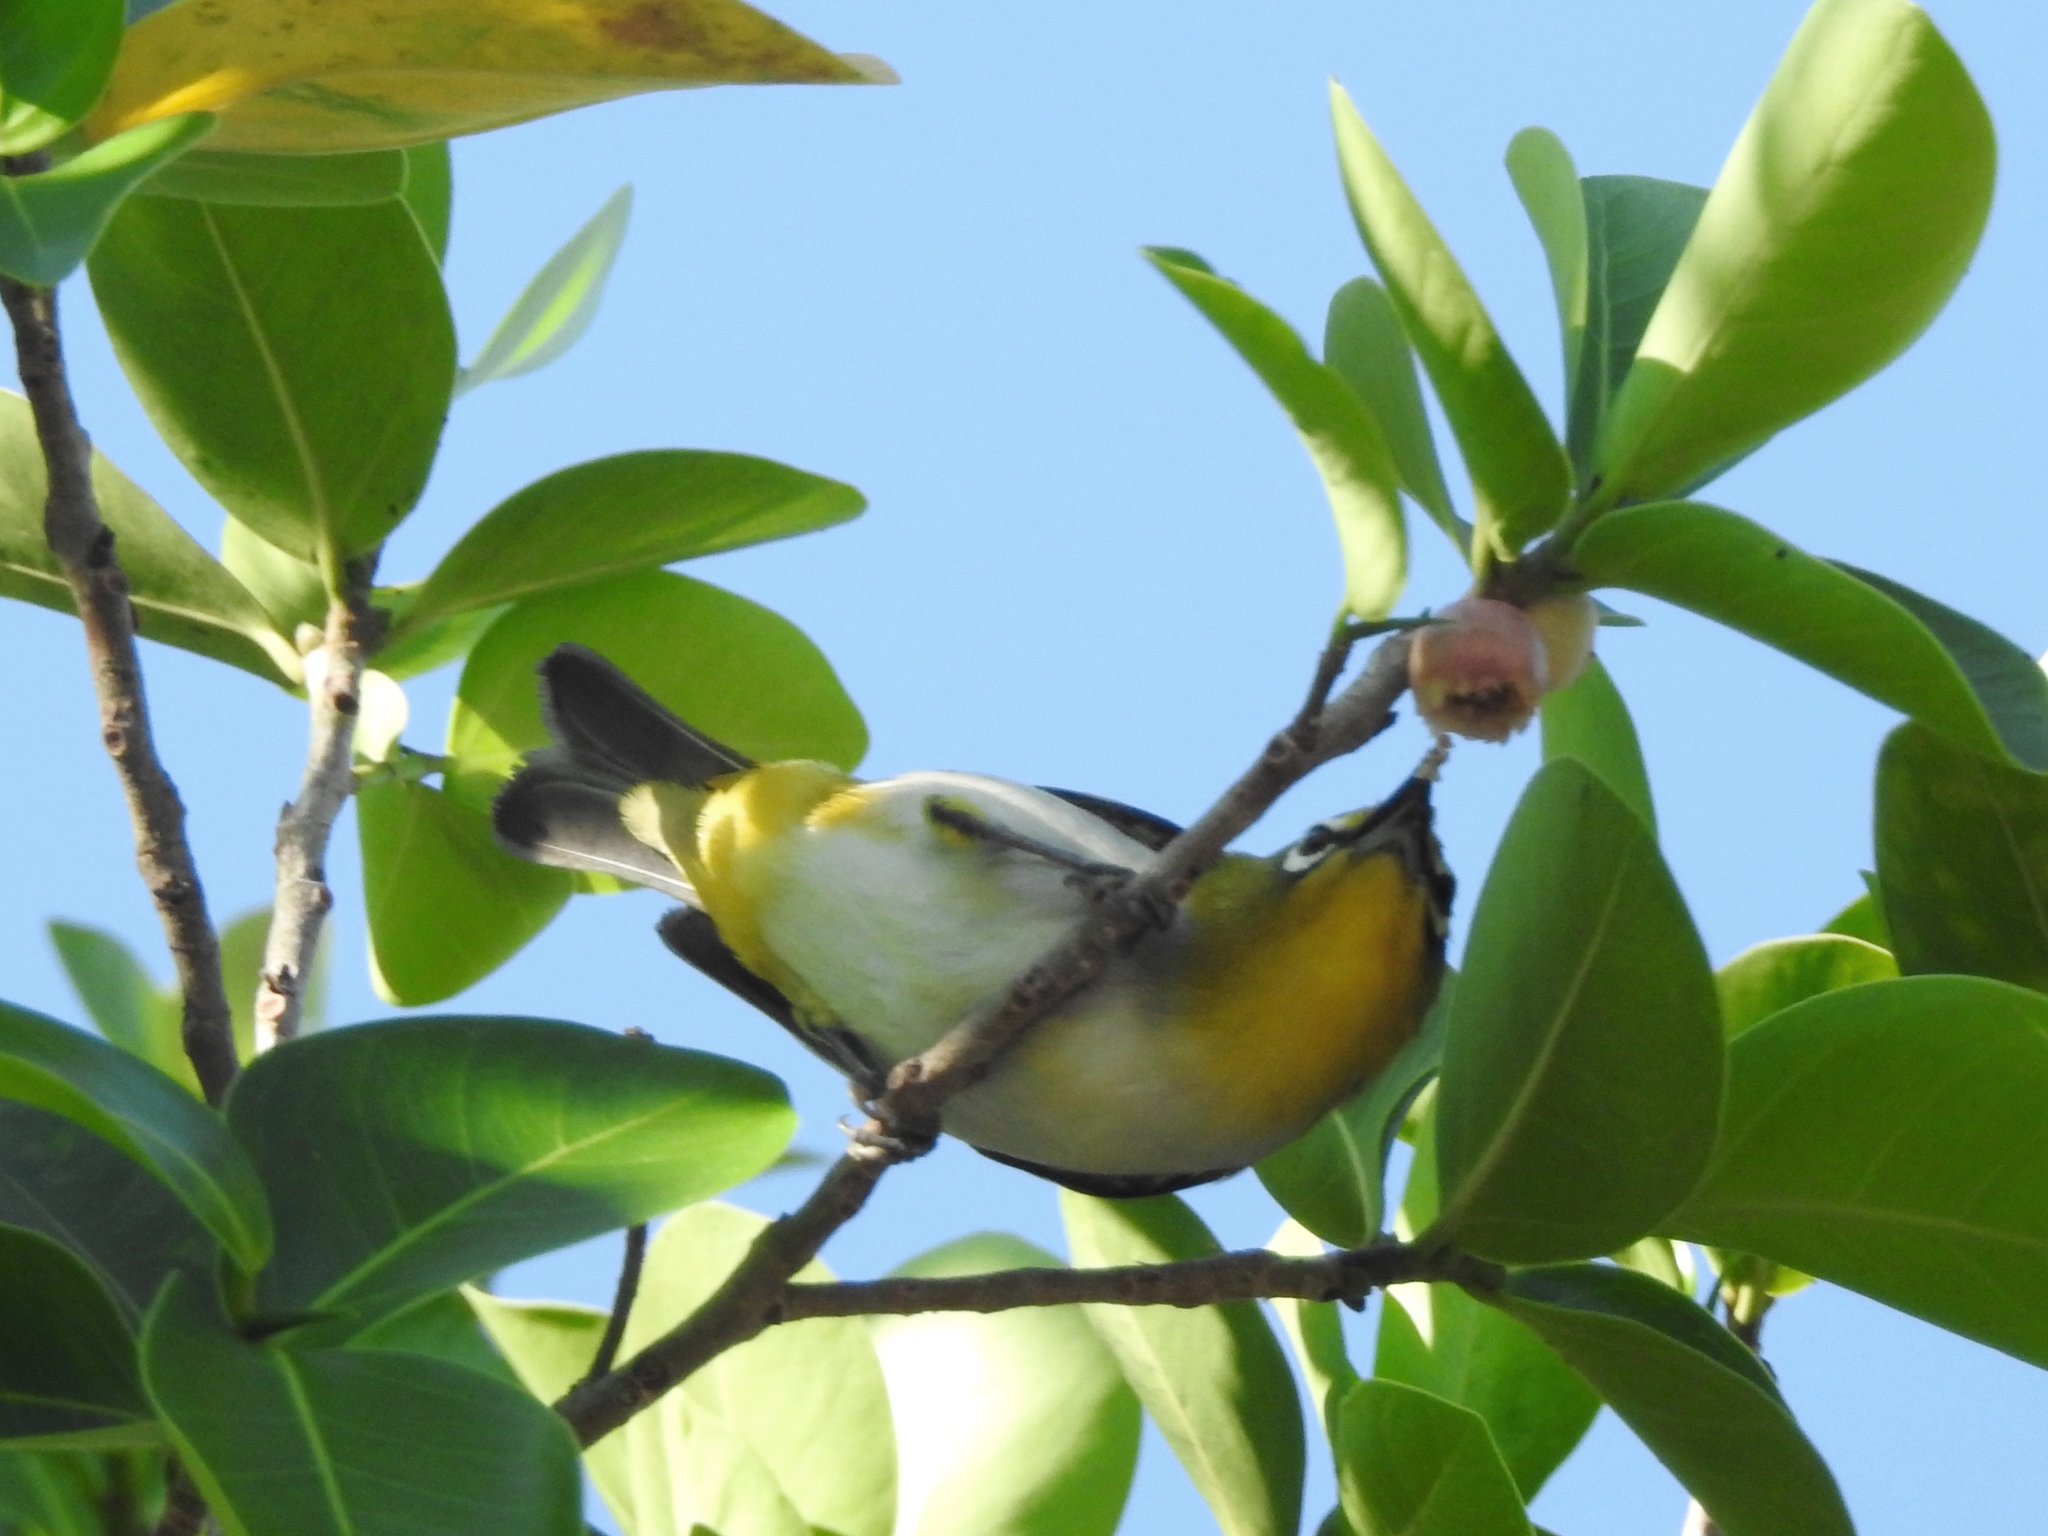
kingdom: Animalia
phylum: Chordata
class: Aves
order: Passeriformes
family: Zosteropidae
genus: Zosterops
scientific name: Zosterops simplex
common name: Swinhoe's white-eye
